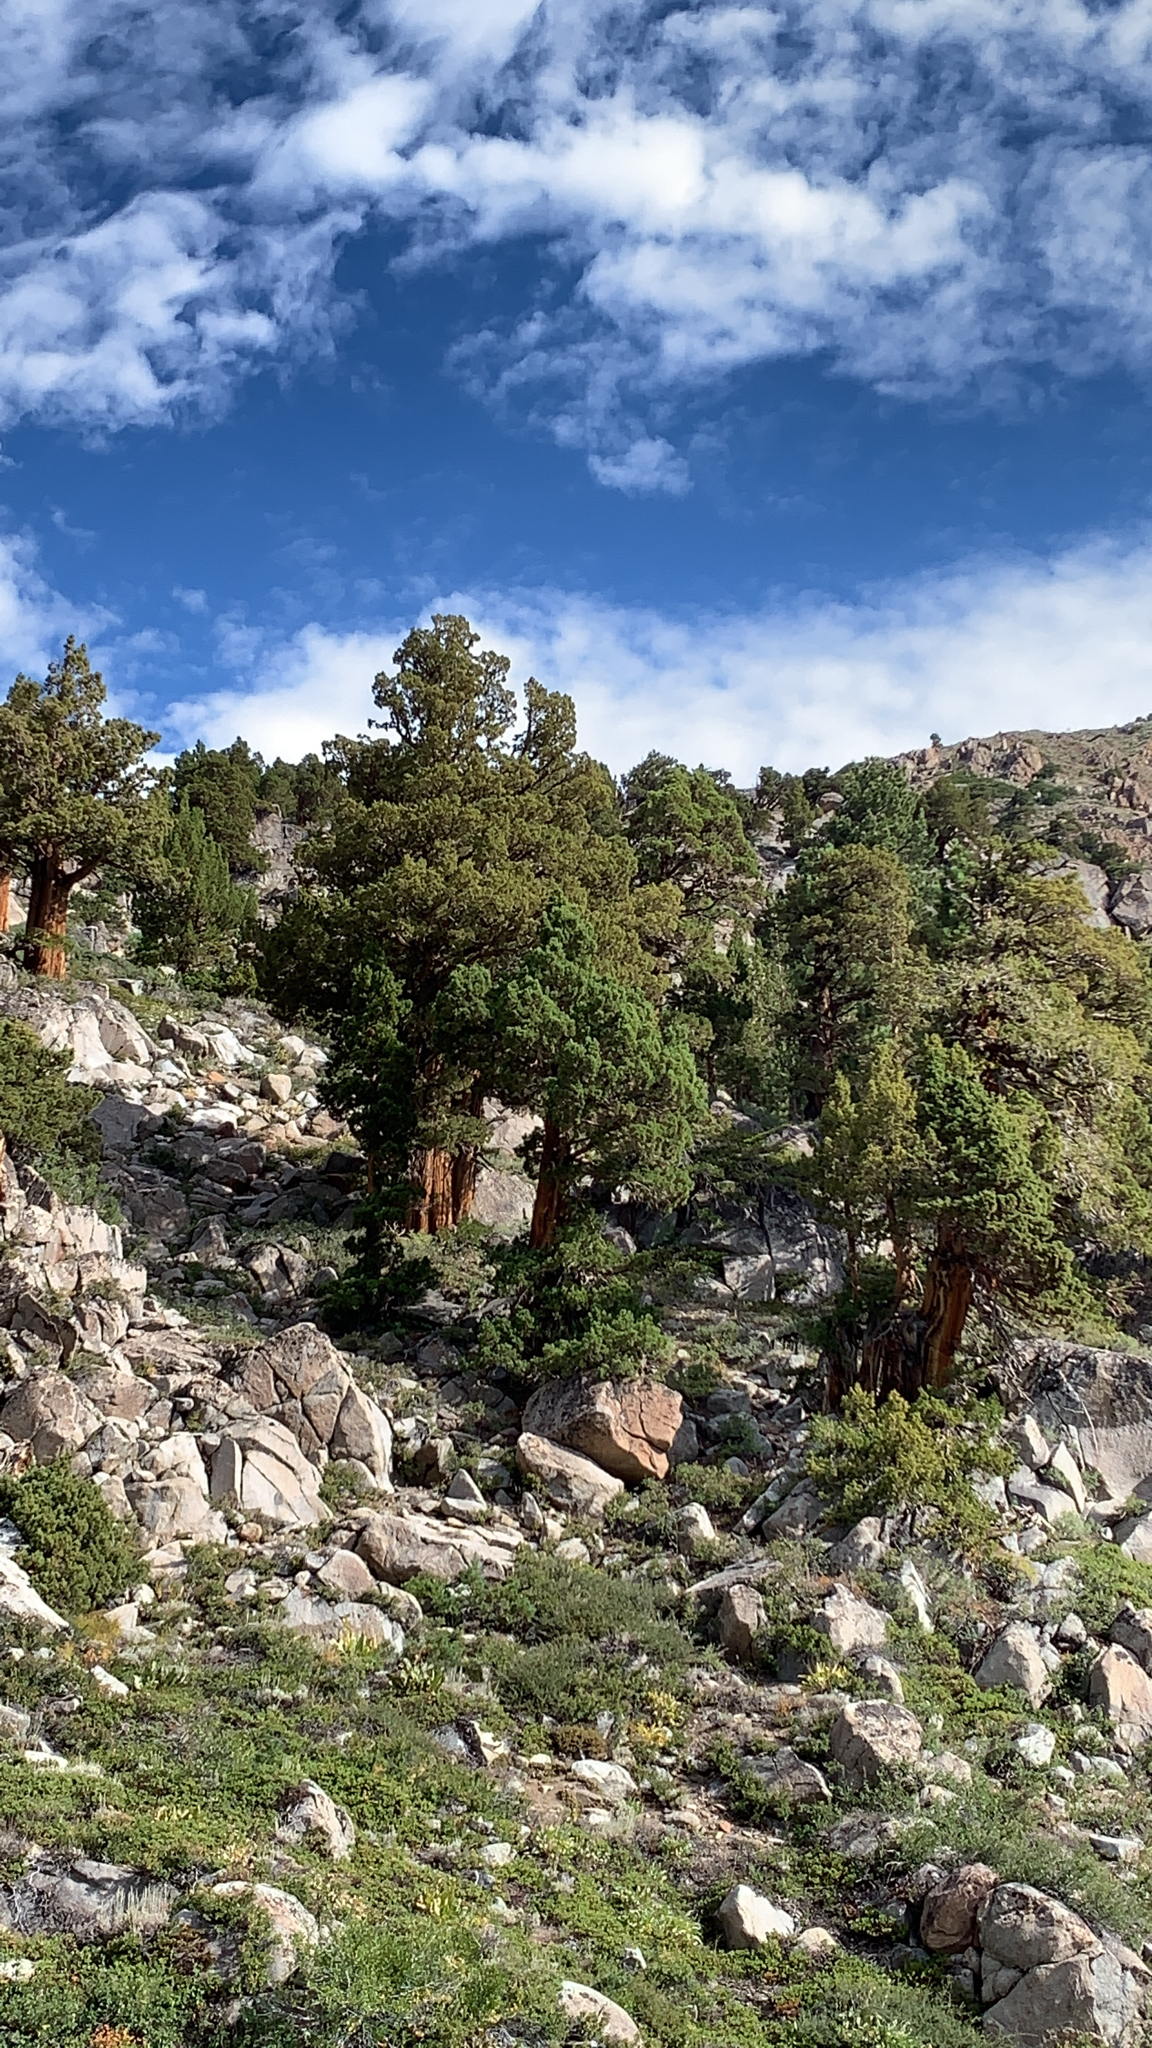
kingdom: Plantae
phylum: Tracheophyta
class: Pinopsida
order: Pinales
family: Cupressaceae
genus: Juniperus
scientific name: Juniperus occidentalis
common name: Western juniper
